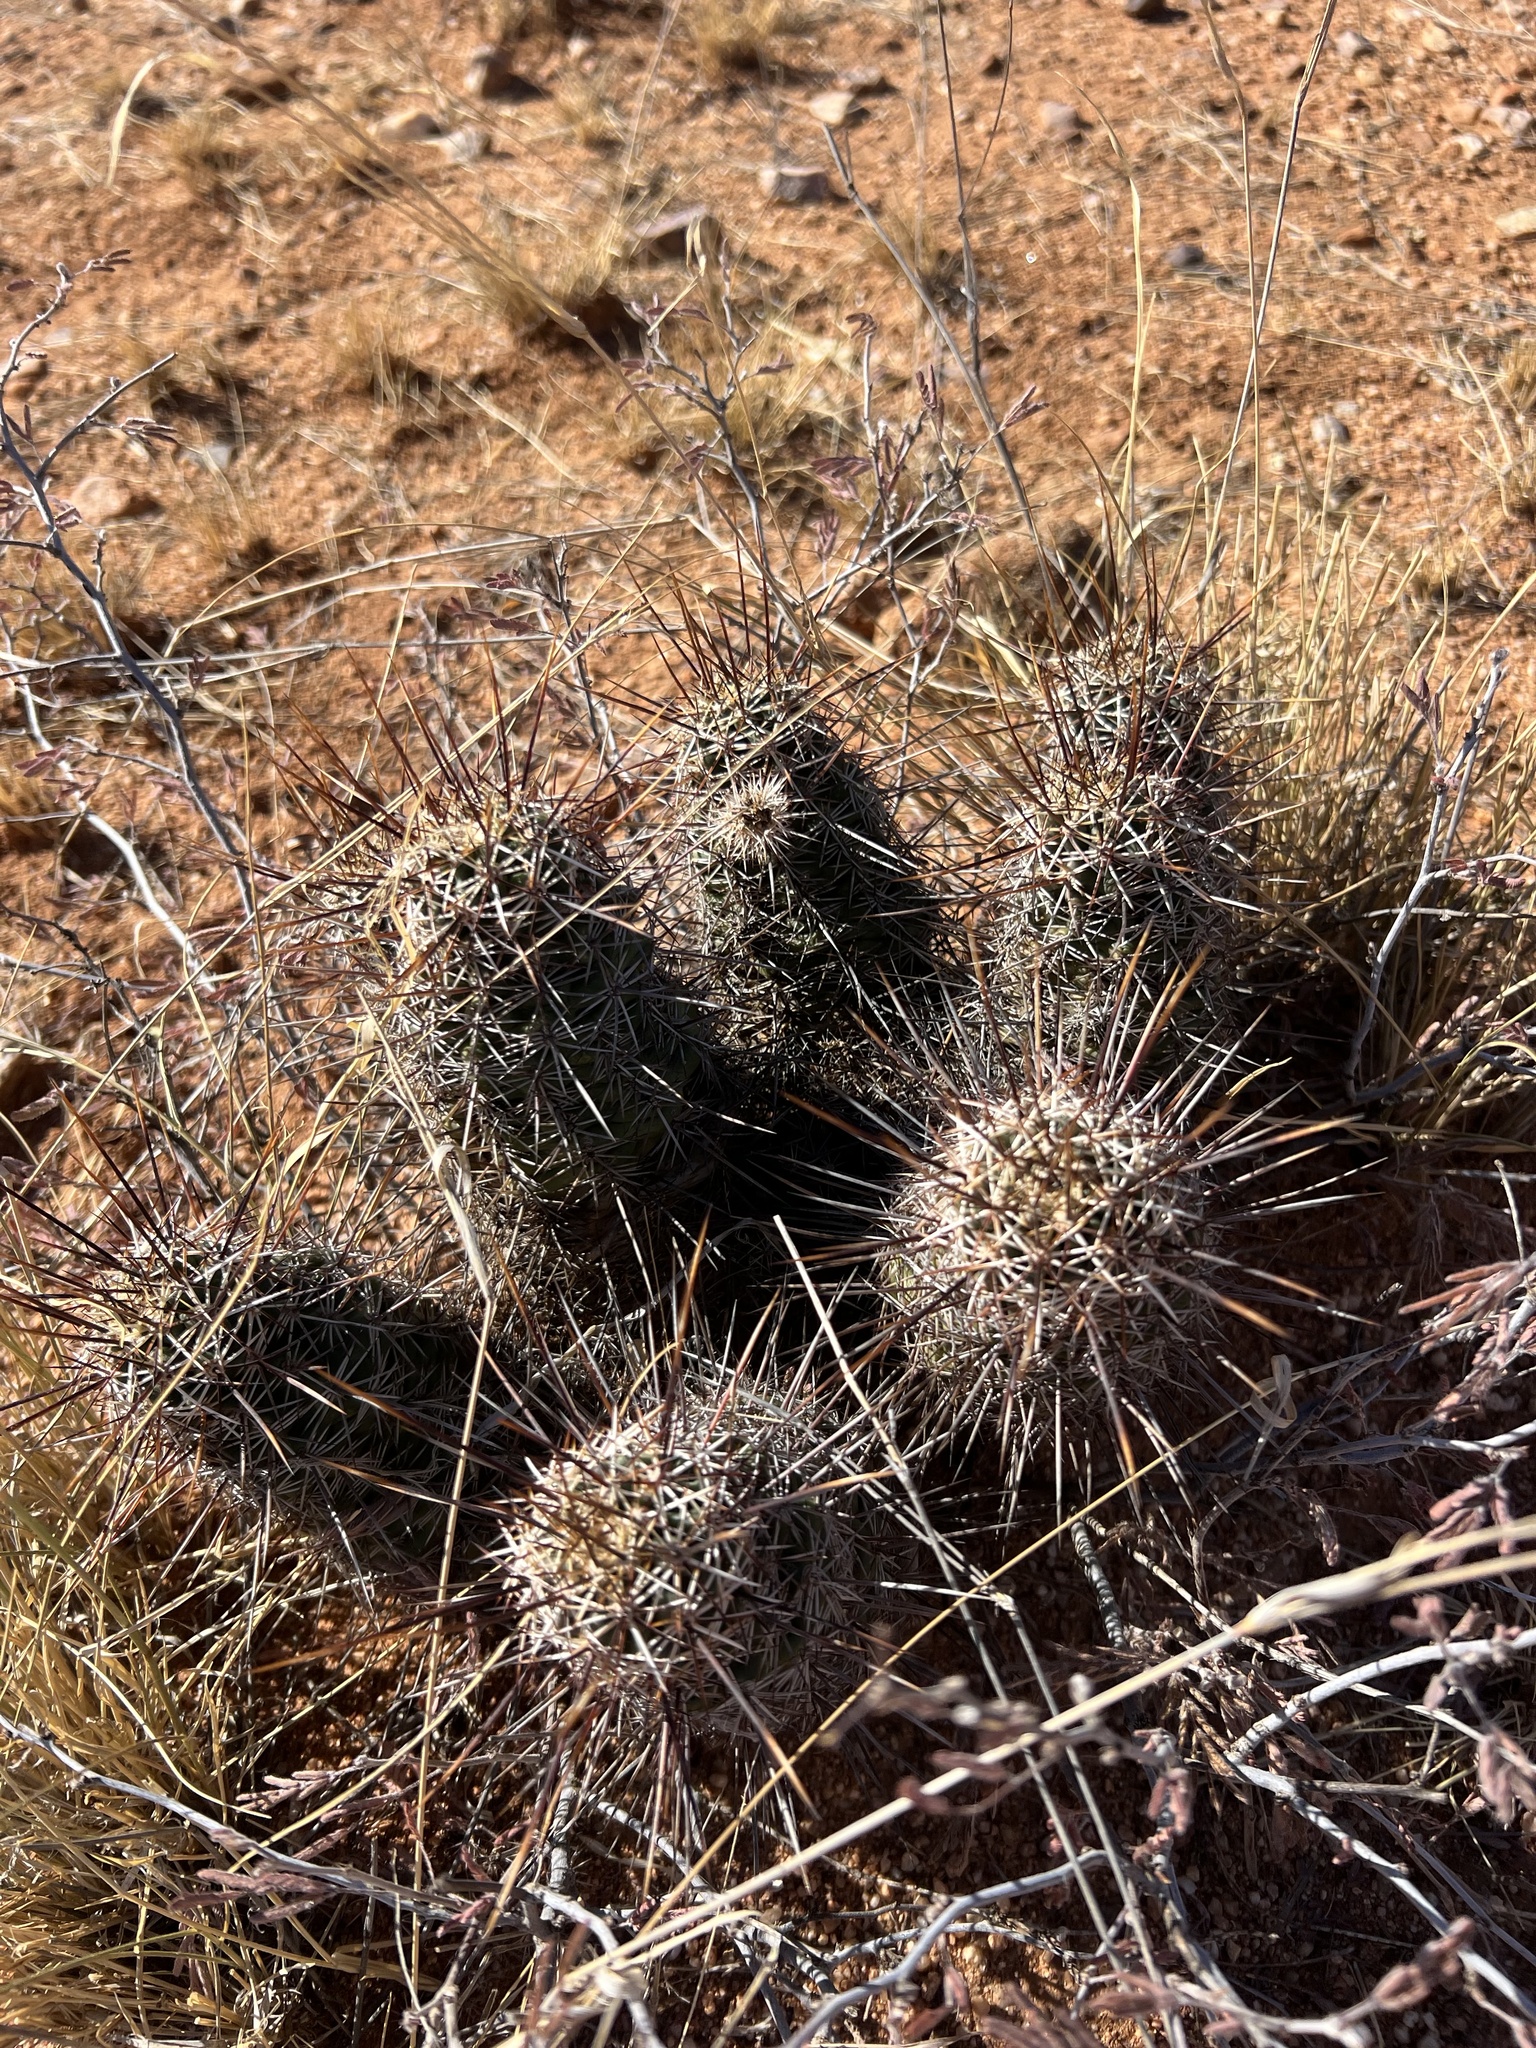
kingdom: Plantae
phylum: Tracheophyta
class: Magnoliopsida
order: Caryophyllales
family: Cactaceae
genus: Echinocereus
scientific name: Echinocereus fasciculatus
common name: Bundle hedgehog
